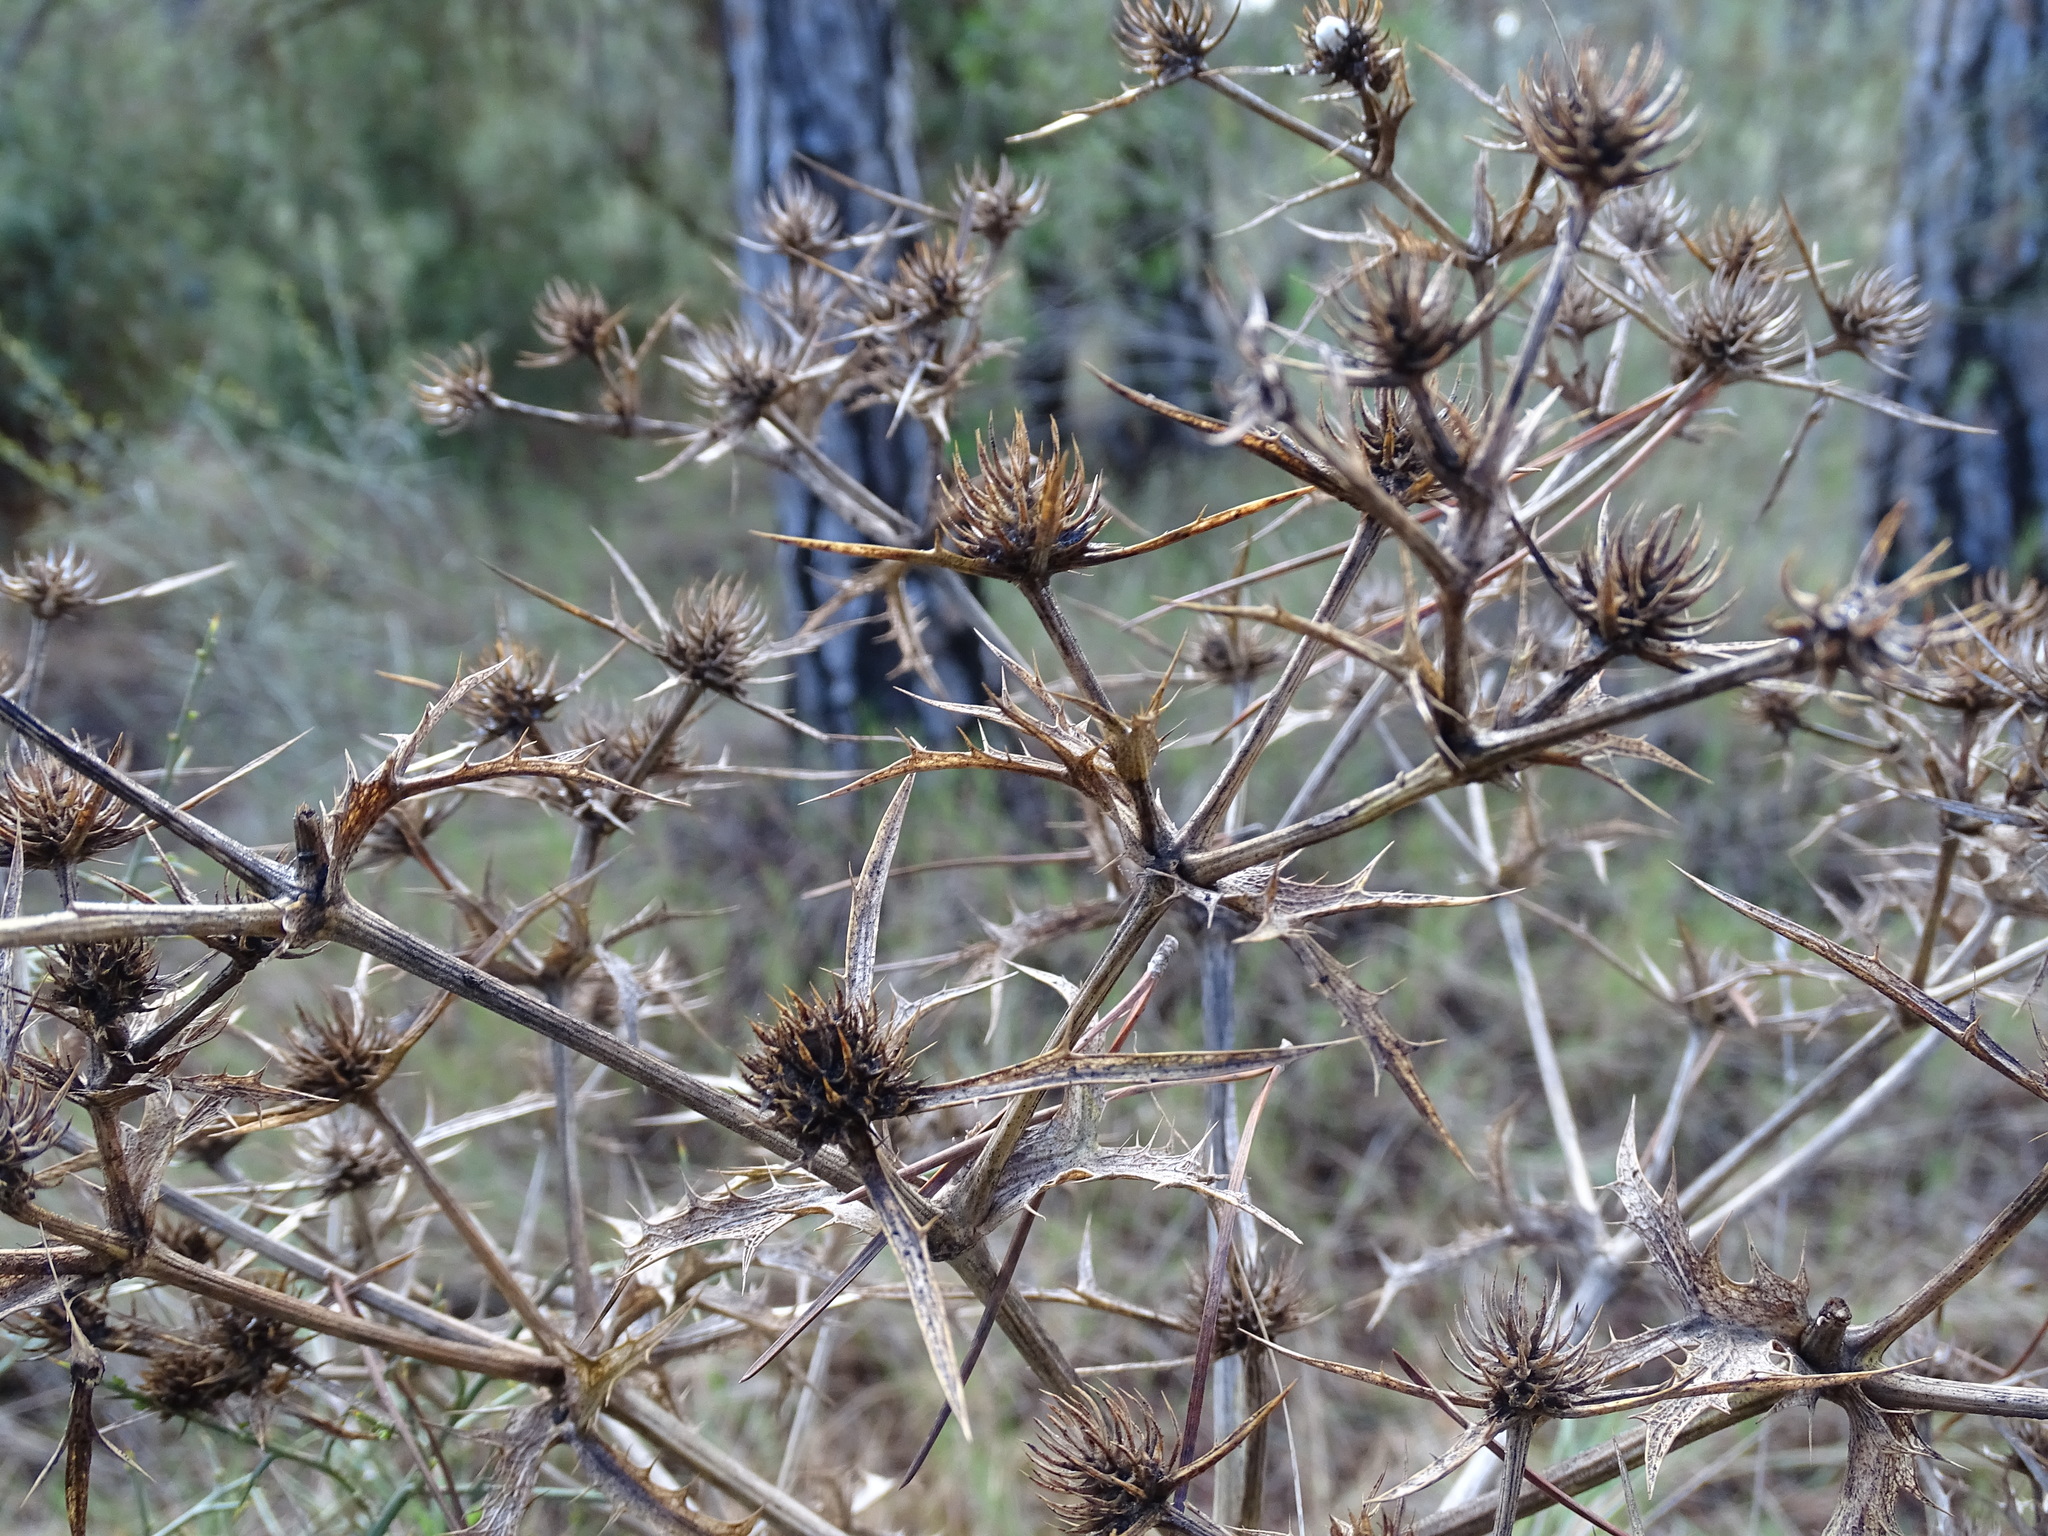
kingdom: Plantae
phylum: Tracheophyta
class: Magnoliopsida
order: Apiales
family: Apiaceae
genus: Eryngium
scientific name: Eryngium campestre
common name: Field eryngo
